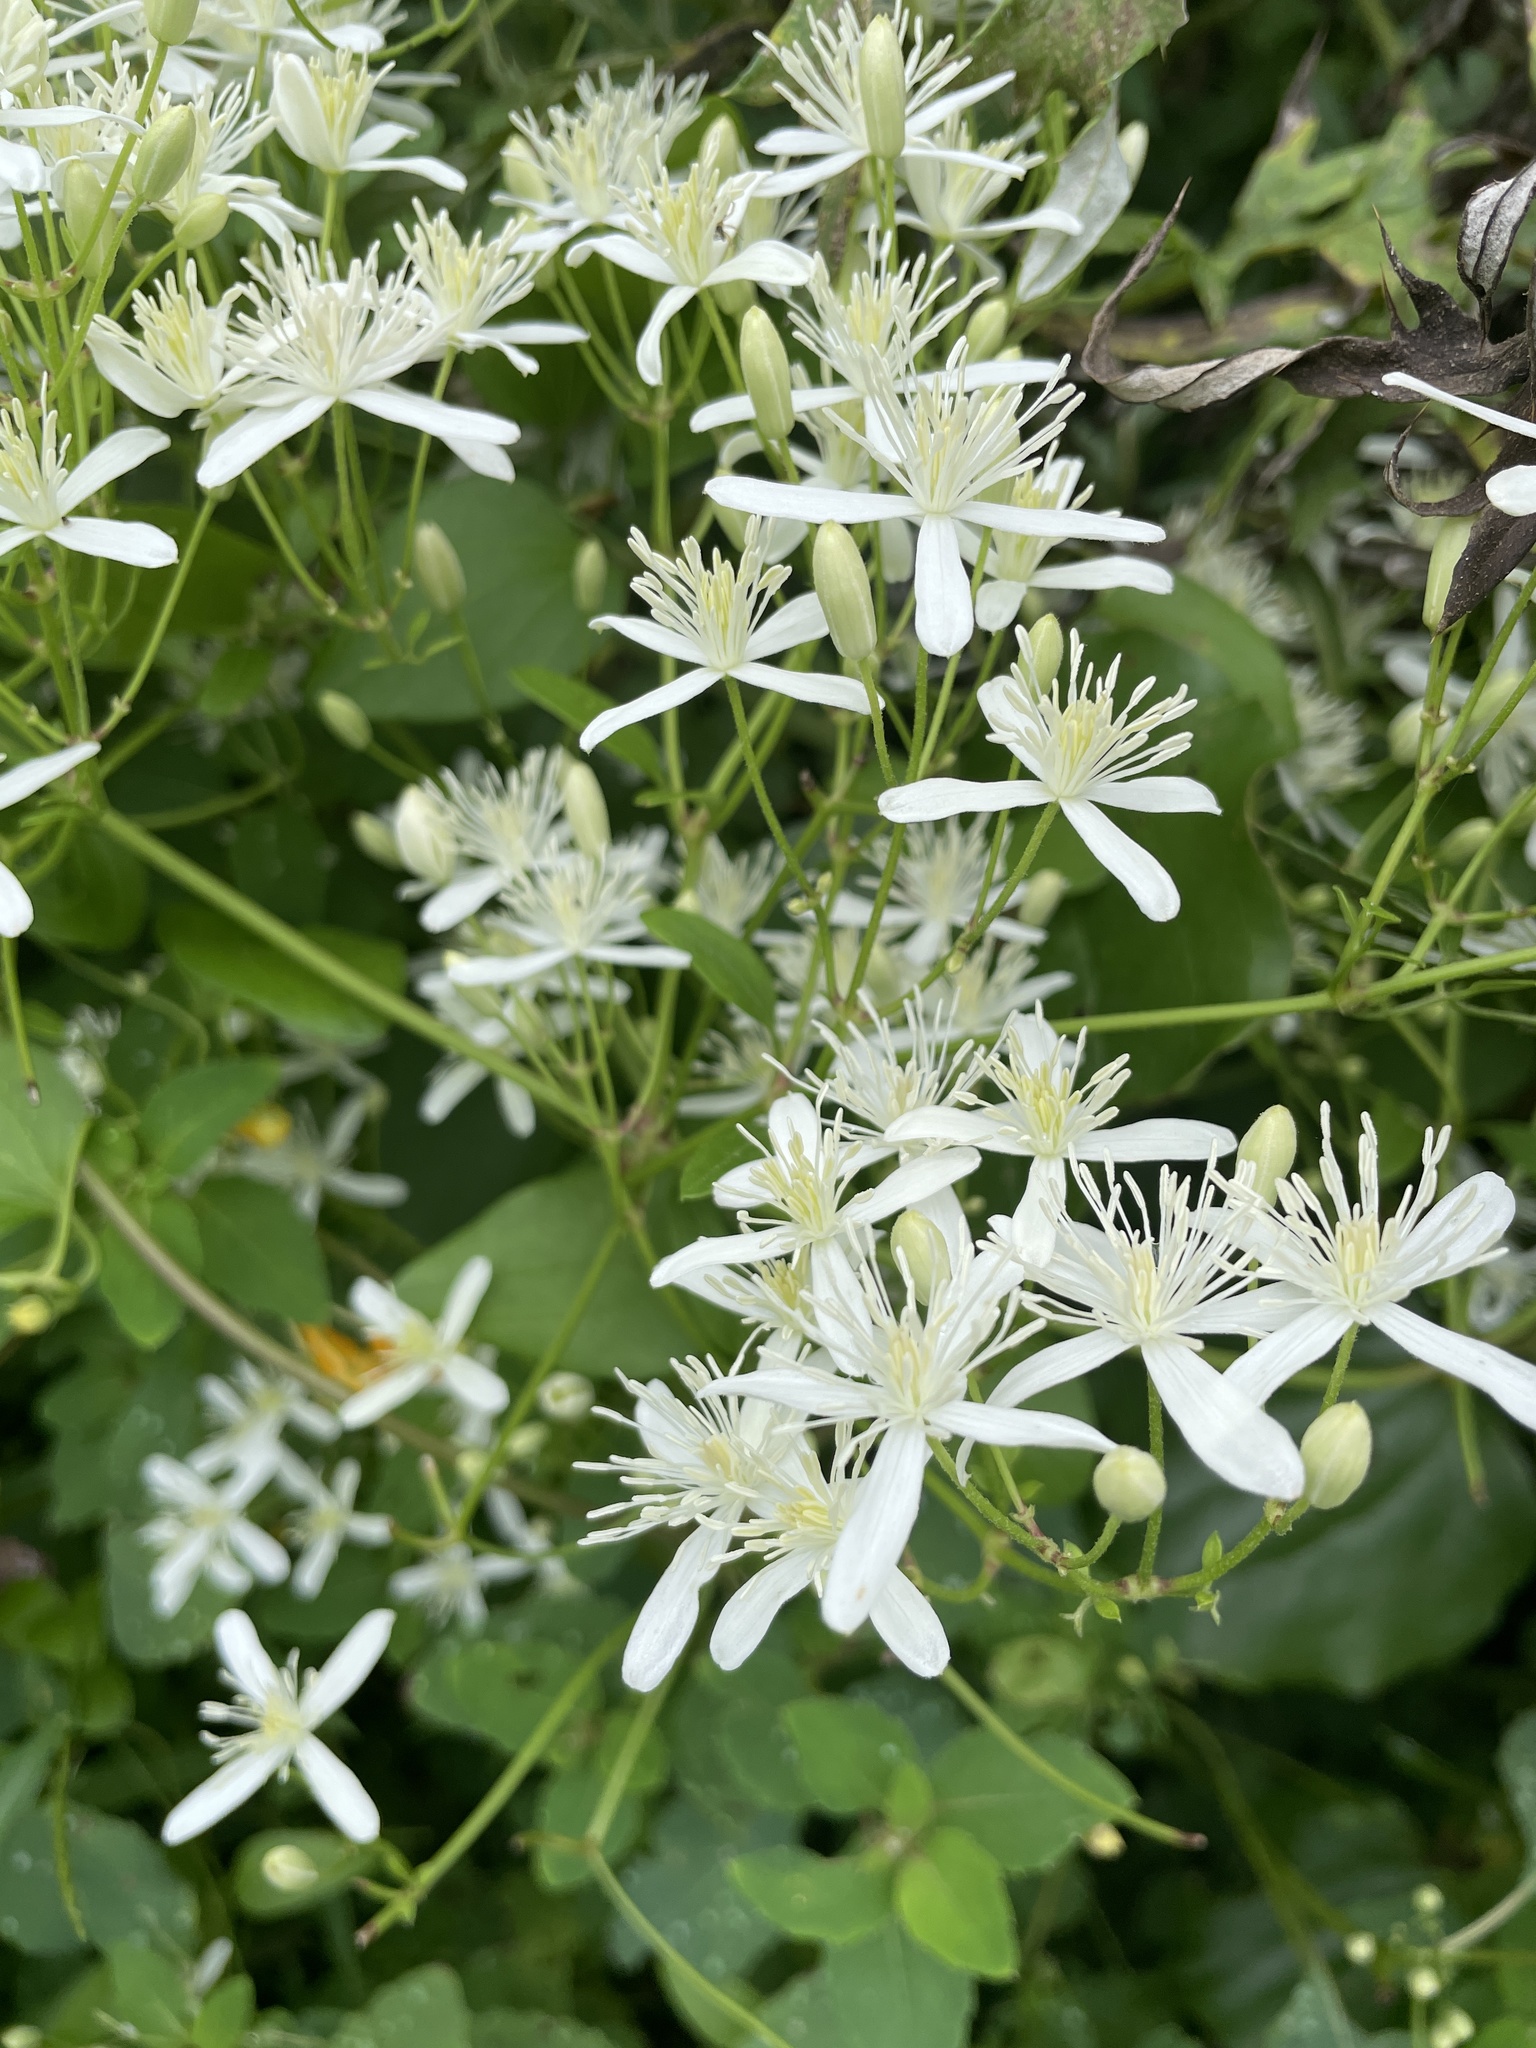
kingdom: Plantae
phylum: Tracheophyta
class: Magnoliopsida
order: Ranunculales
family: Ranunculaceae
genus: Clematis
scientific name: Clematis terniflora
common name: Sweet autumn clematis
